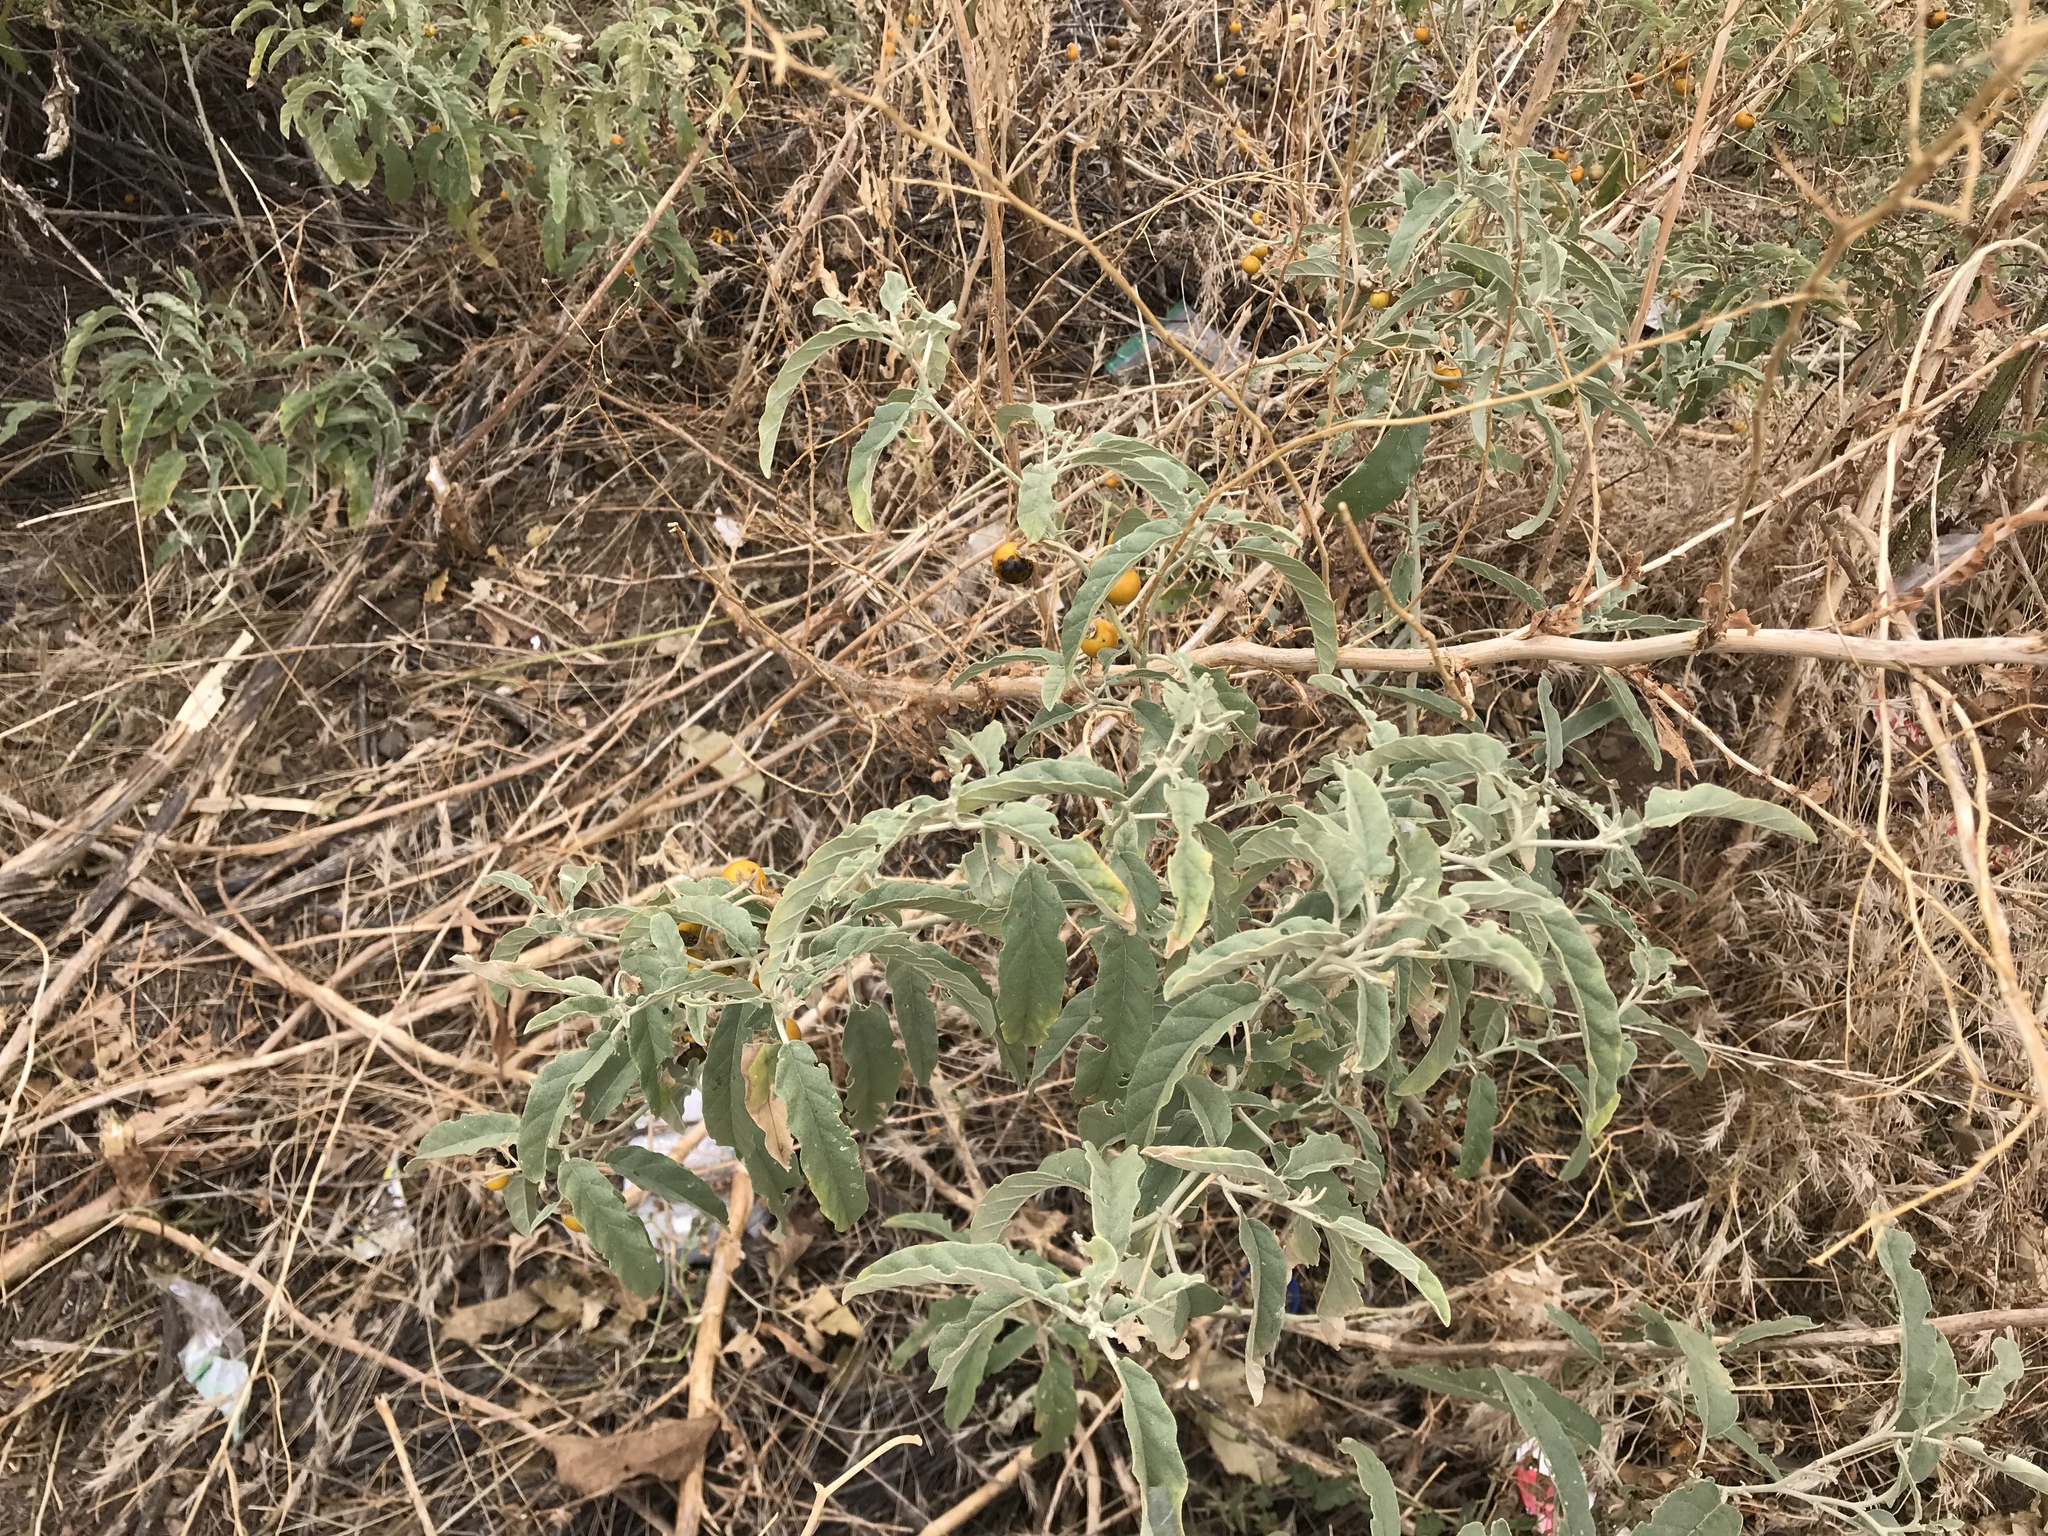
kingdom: Plantae
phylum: Tracheophyta
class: Magnoliopsida
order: Solanales
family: Solanaceae
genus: Solanum
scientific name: Solanum elaeagnifolium
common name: Silverleaf nightshade
